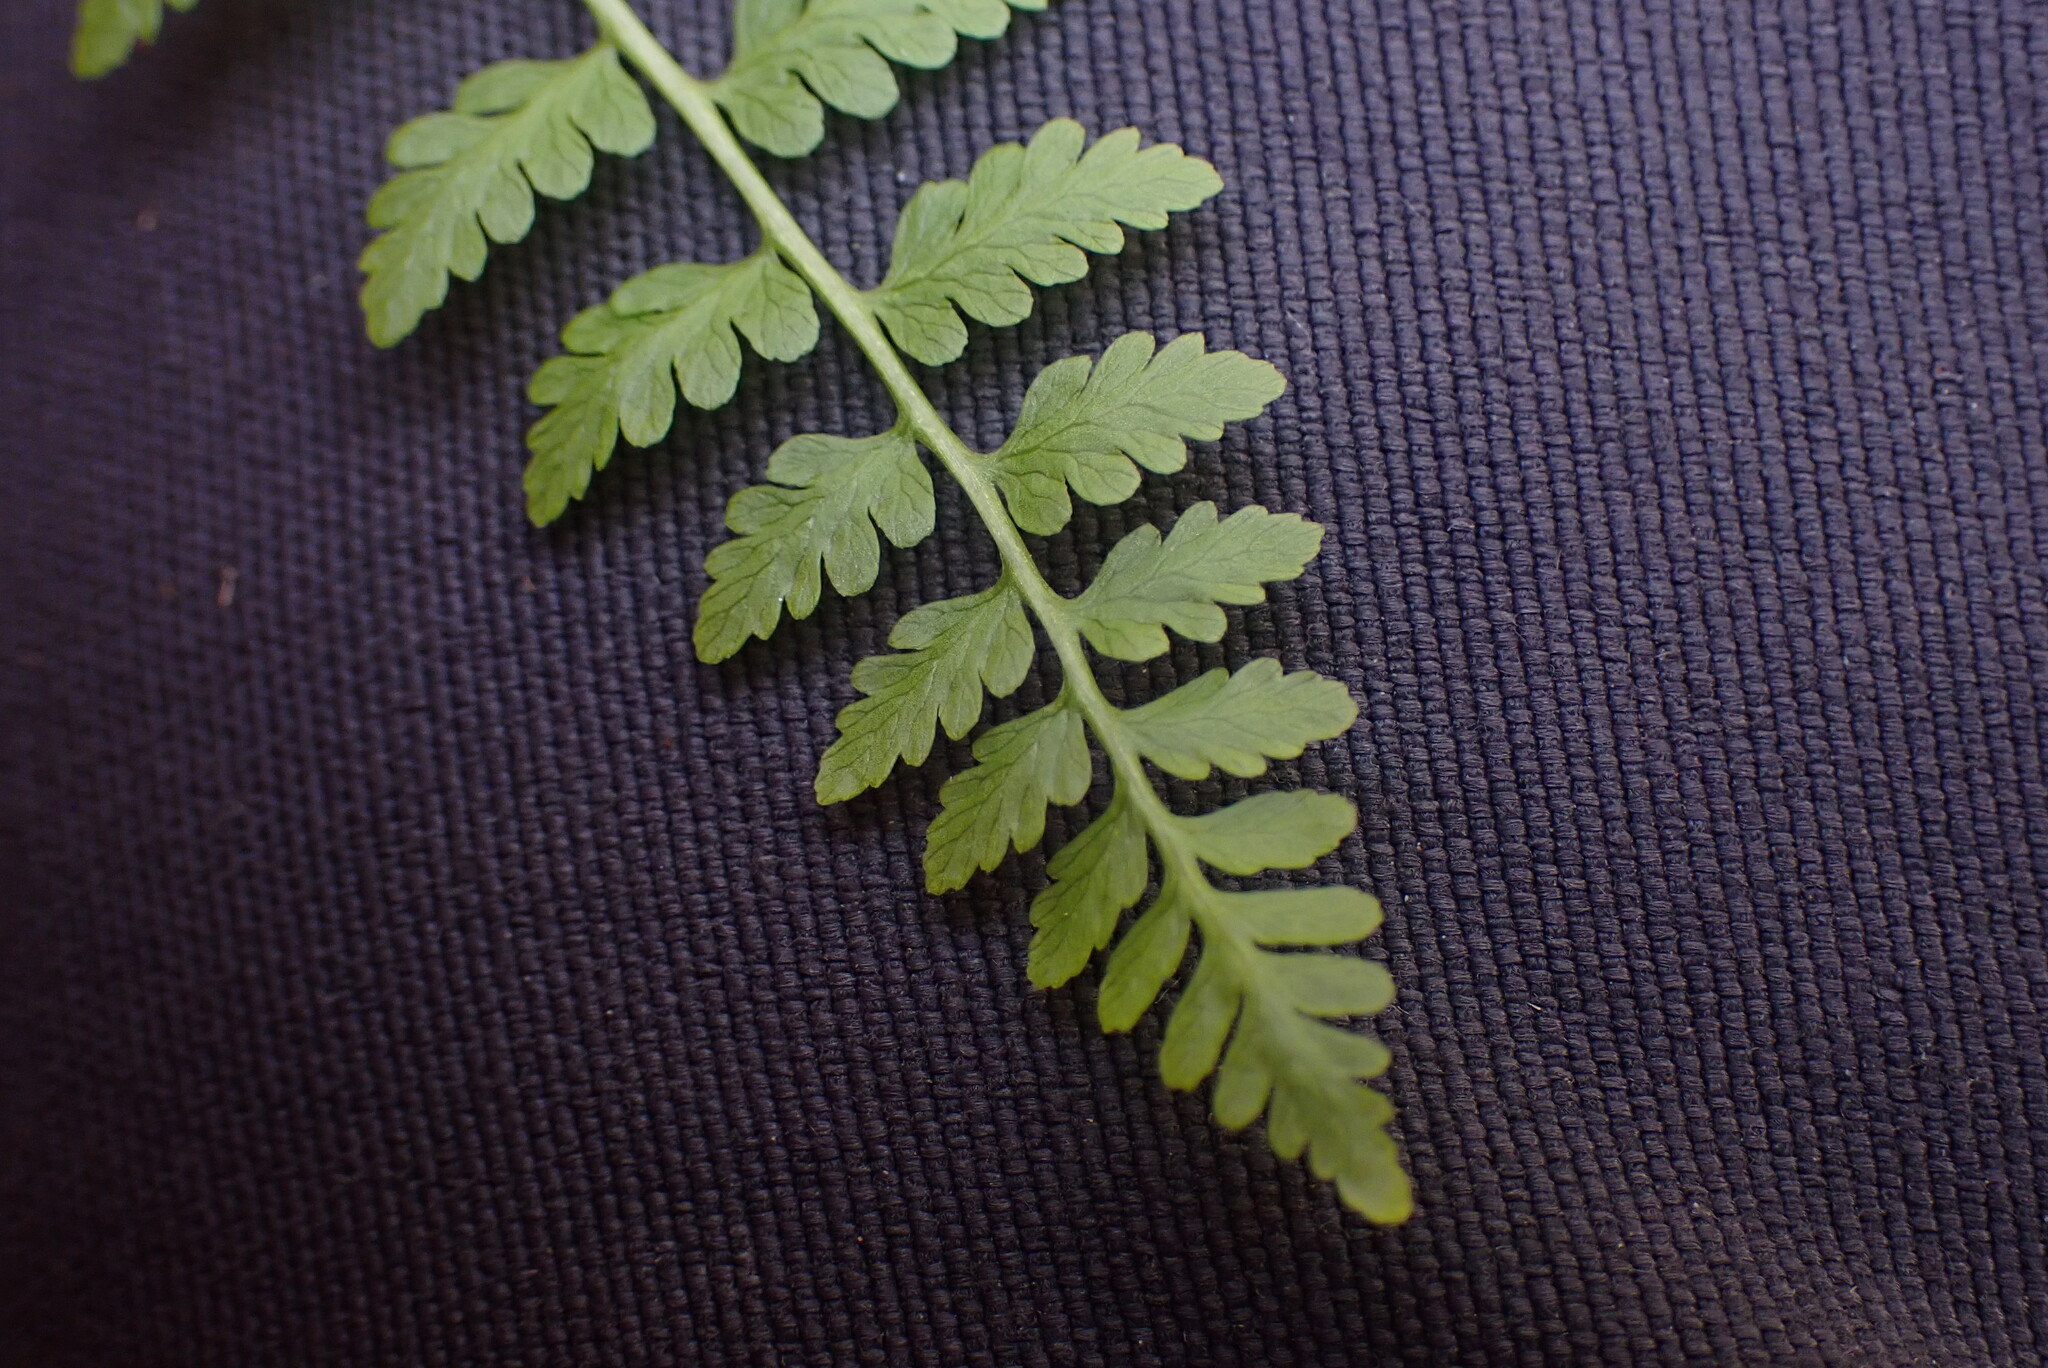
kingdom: Plantae
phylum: Tracheophyta
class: Polypodiopsida
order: Polypodiales
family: Cystopteridaceae
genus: Cystopteris
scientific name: Cystopteris fragilis
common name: Brittle bladder fern
